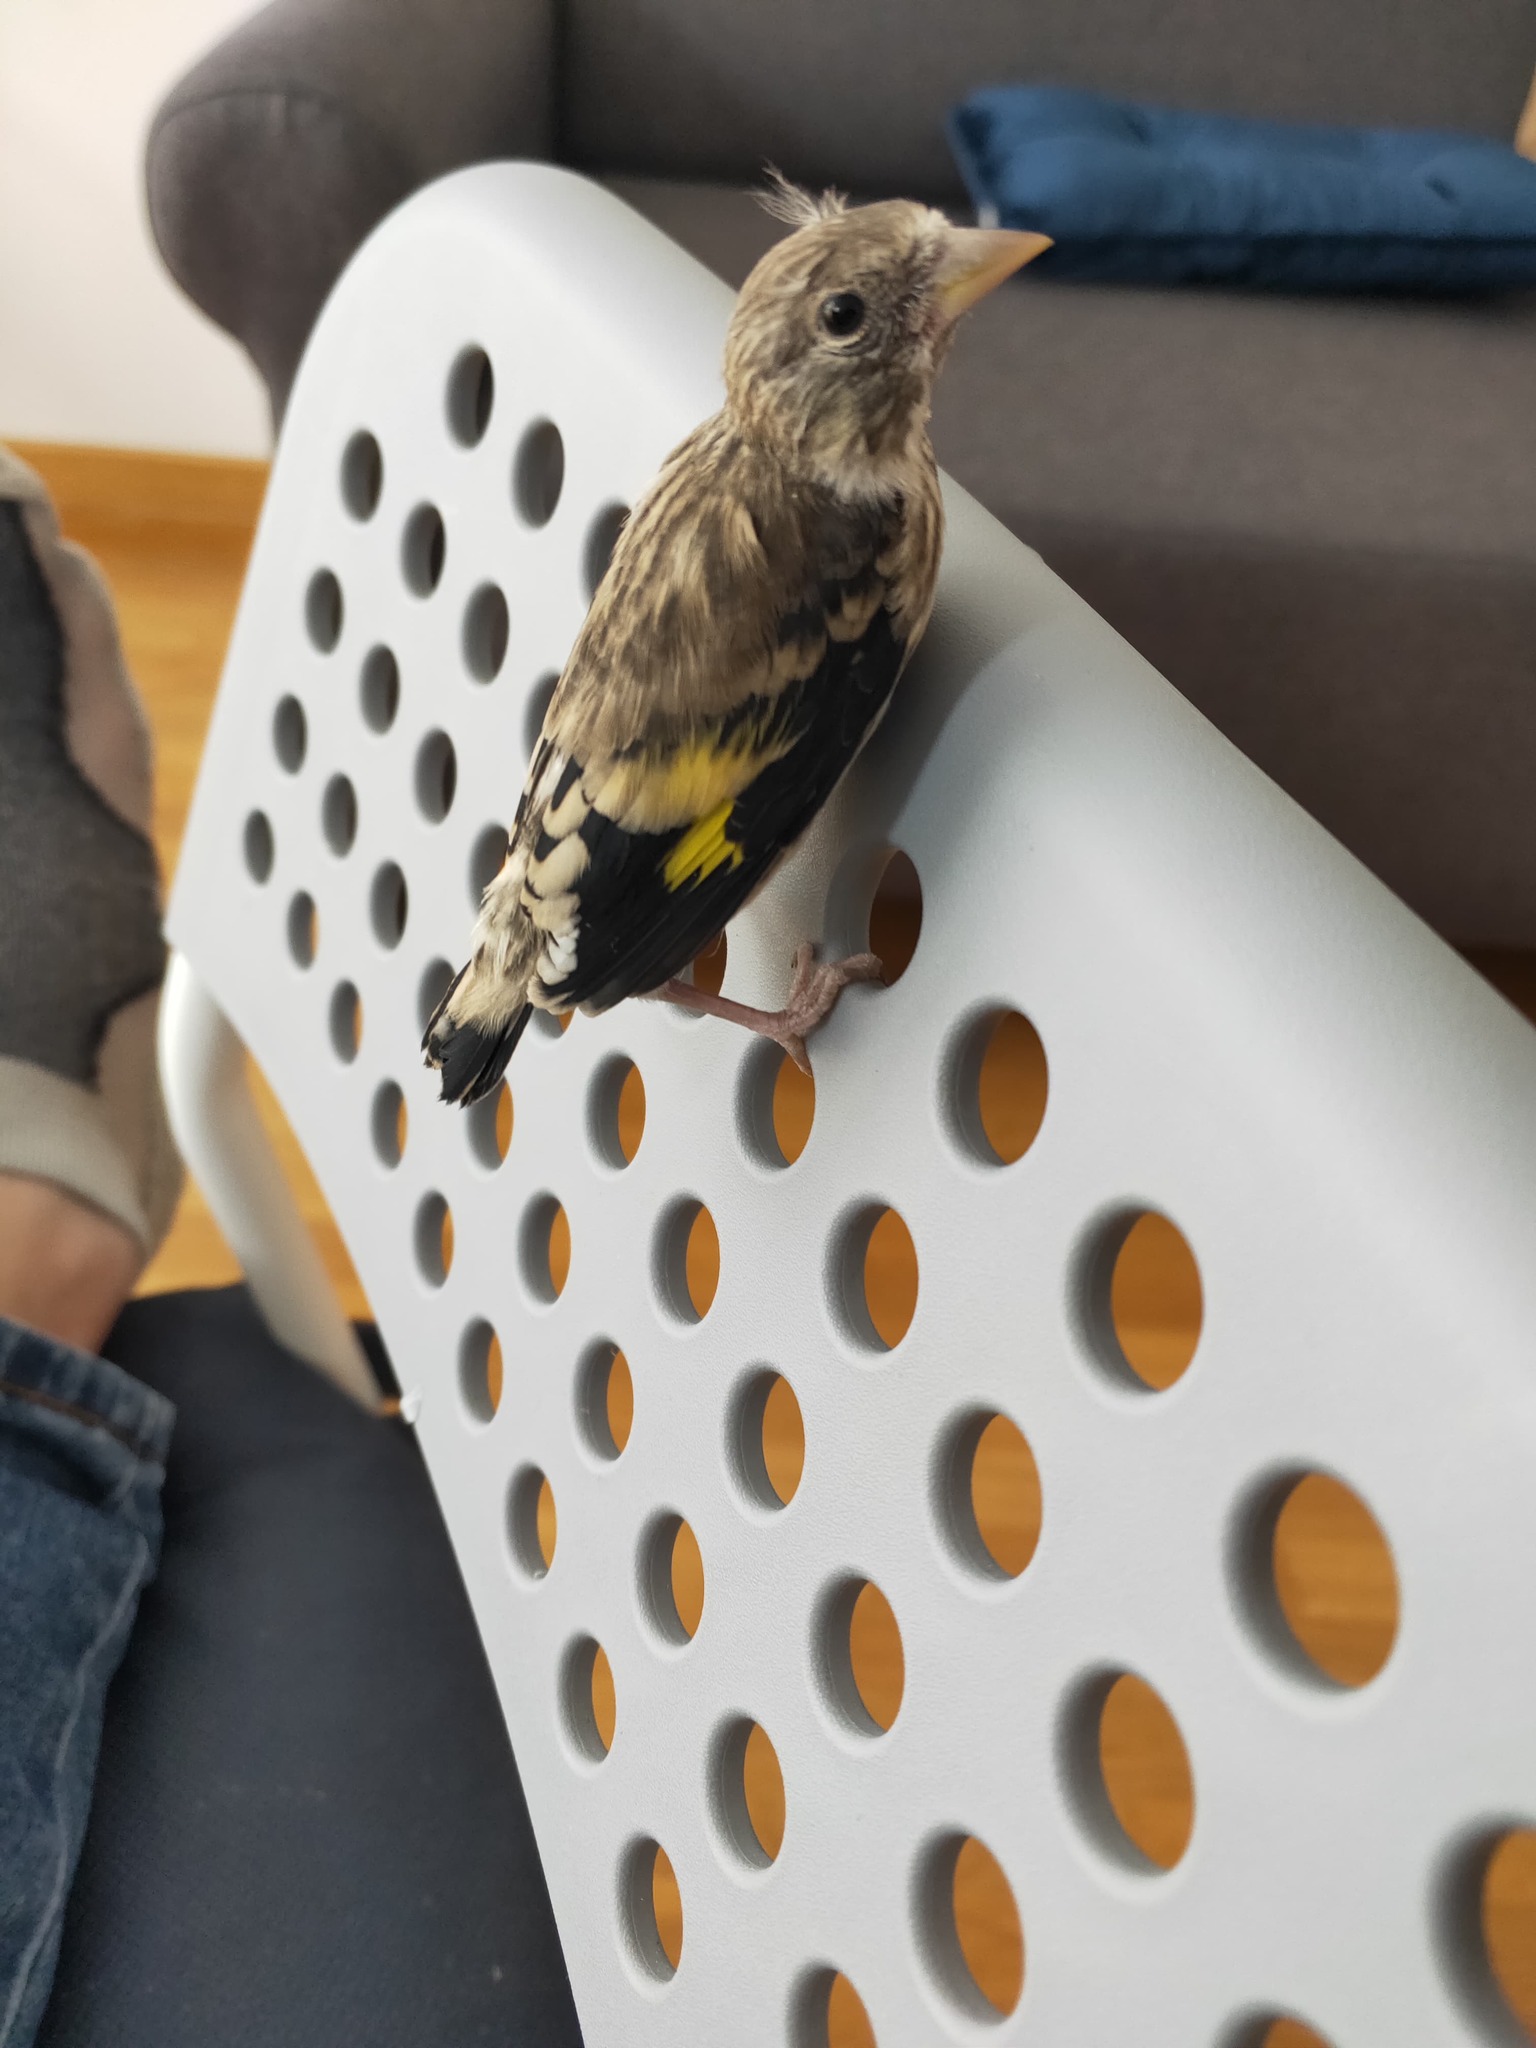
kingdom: Animalia
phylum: Chordata
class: Aves
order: Passeriformes
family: Fringillidae
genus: Carduelis
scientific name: Carduelis carduelis
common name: European goldfinch
